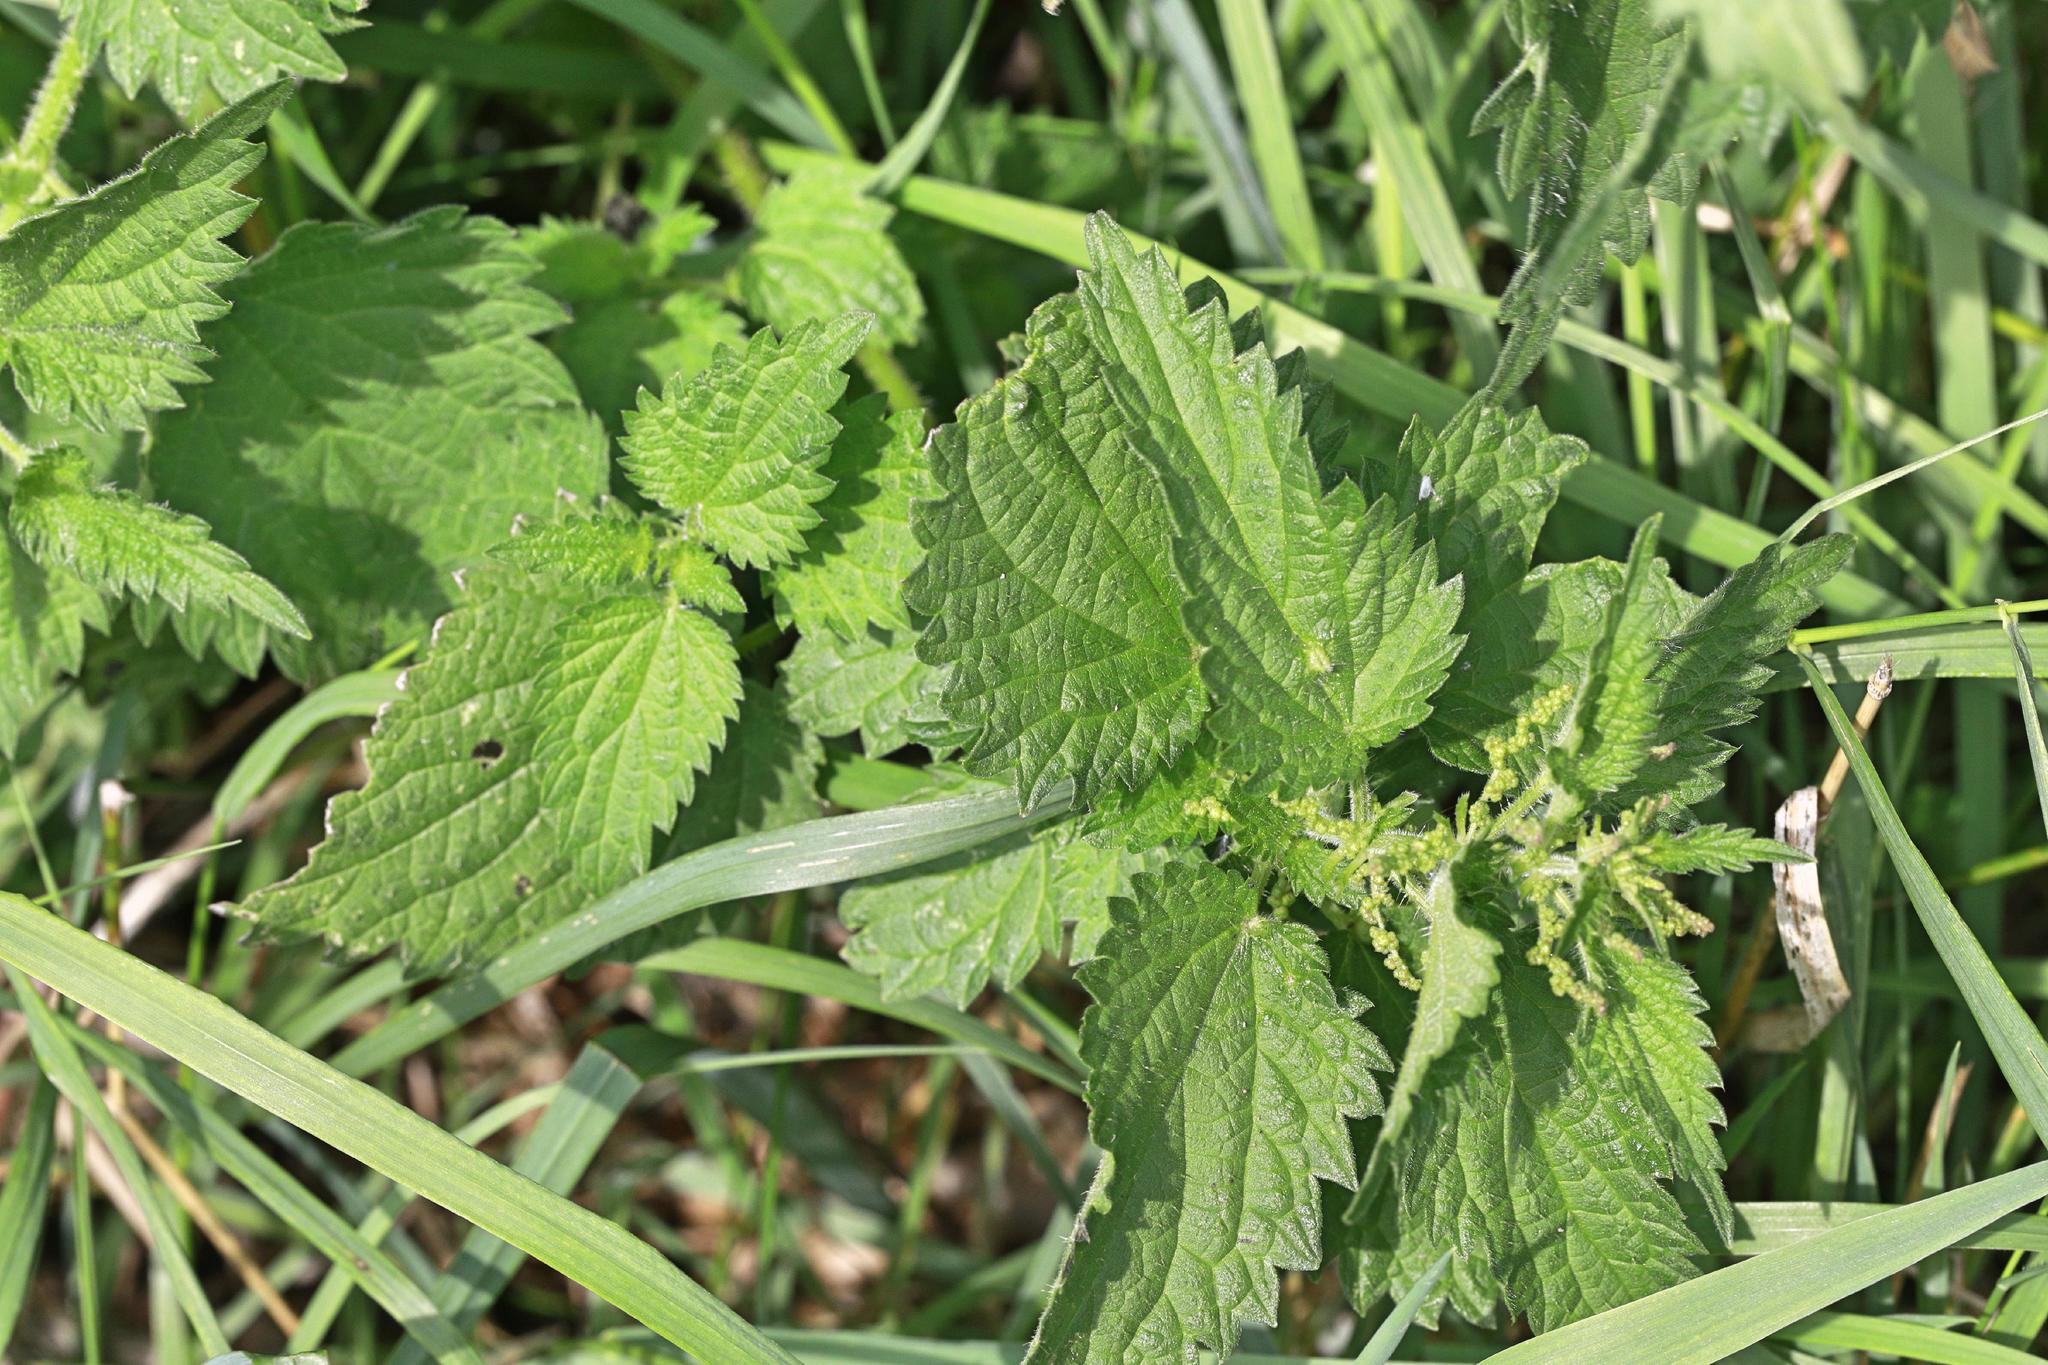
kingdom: Plantae
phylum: Tracheophyta
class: Magnoliopsida
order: Rosales
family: Urticaceae
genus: Urtica
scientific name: Urtica dioica
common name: Common nettle
